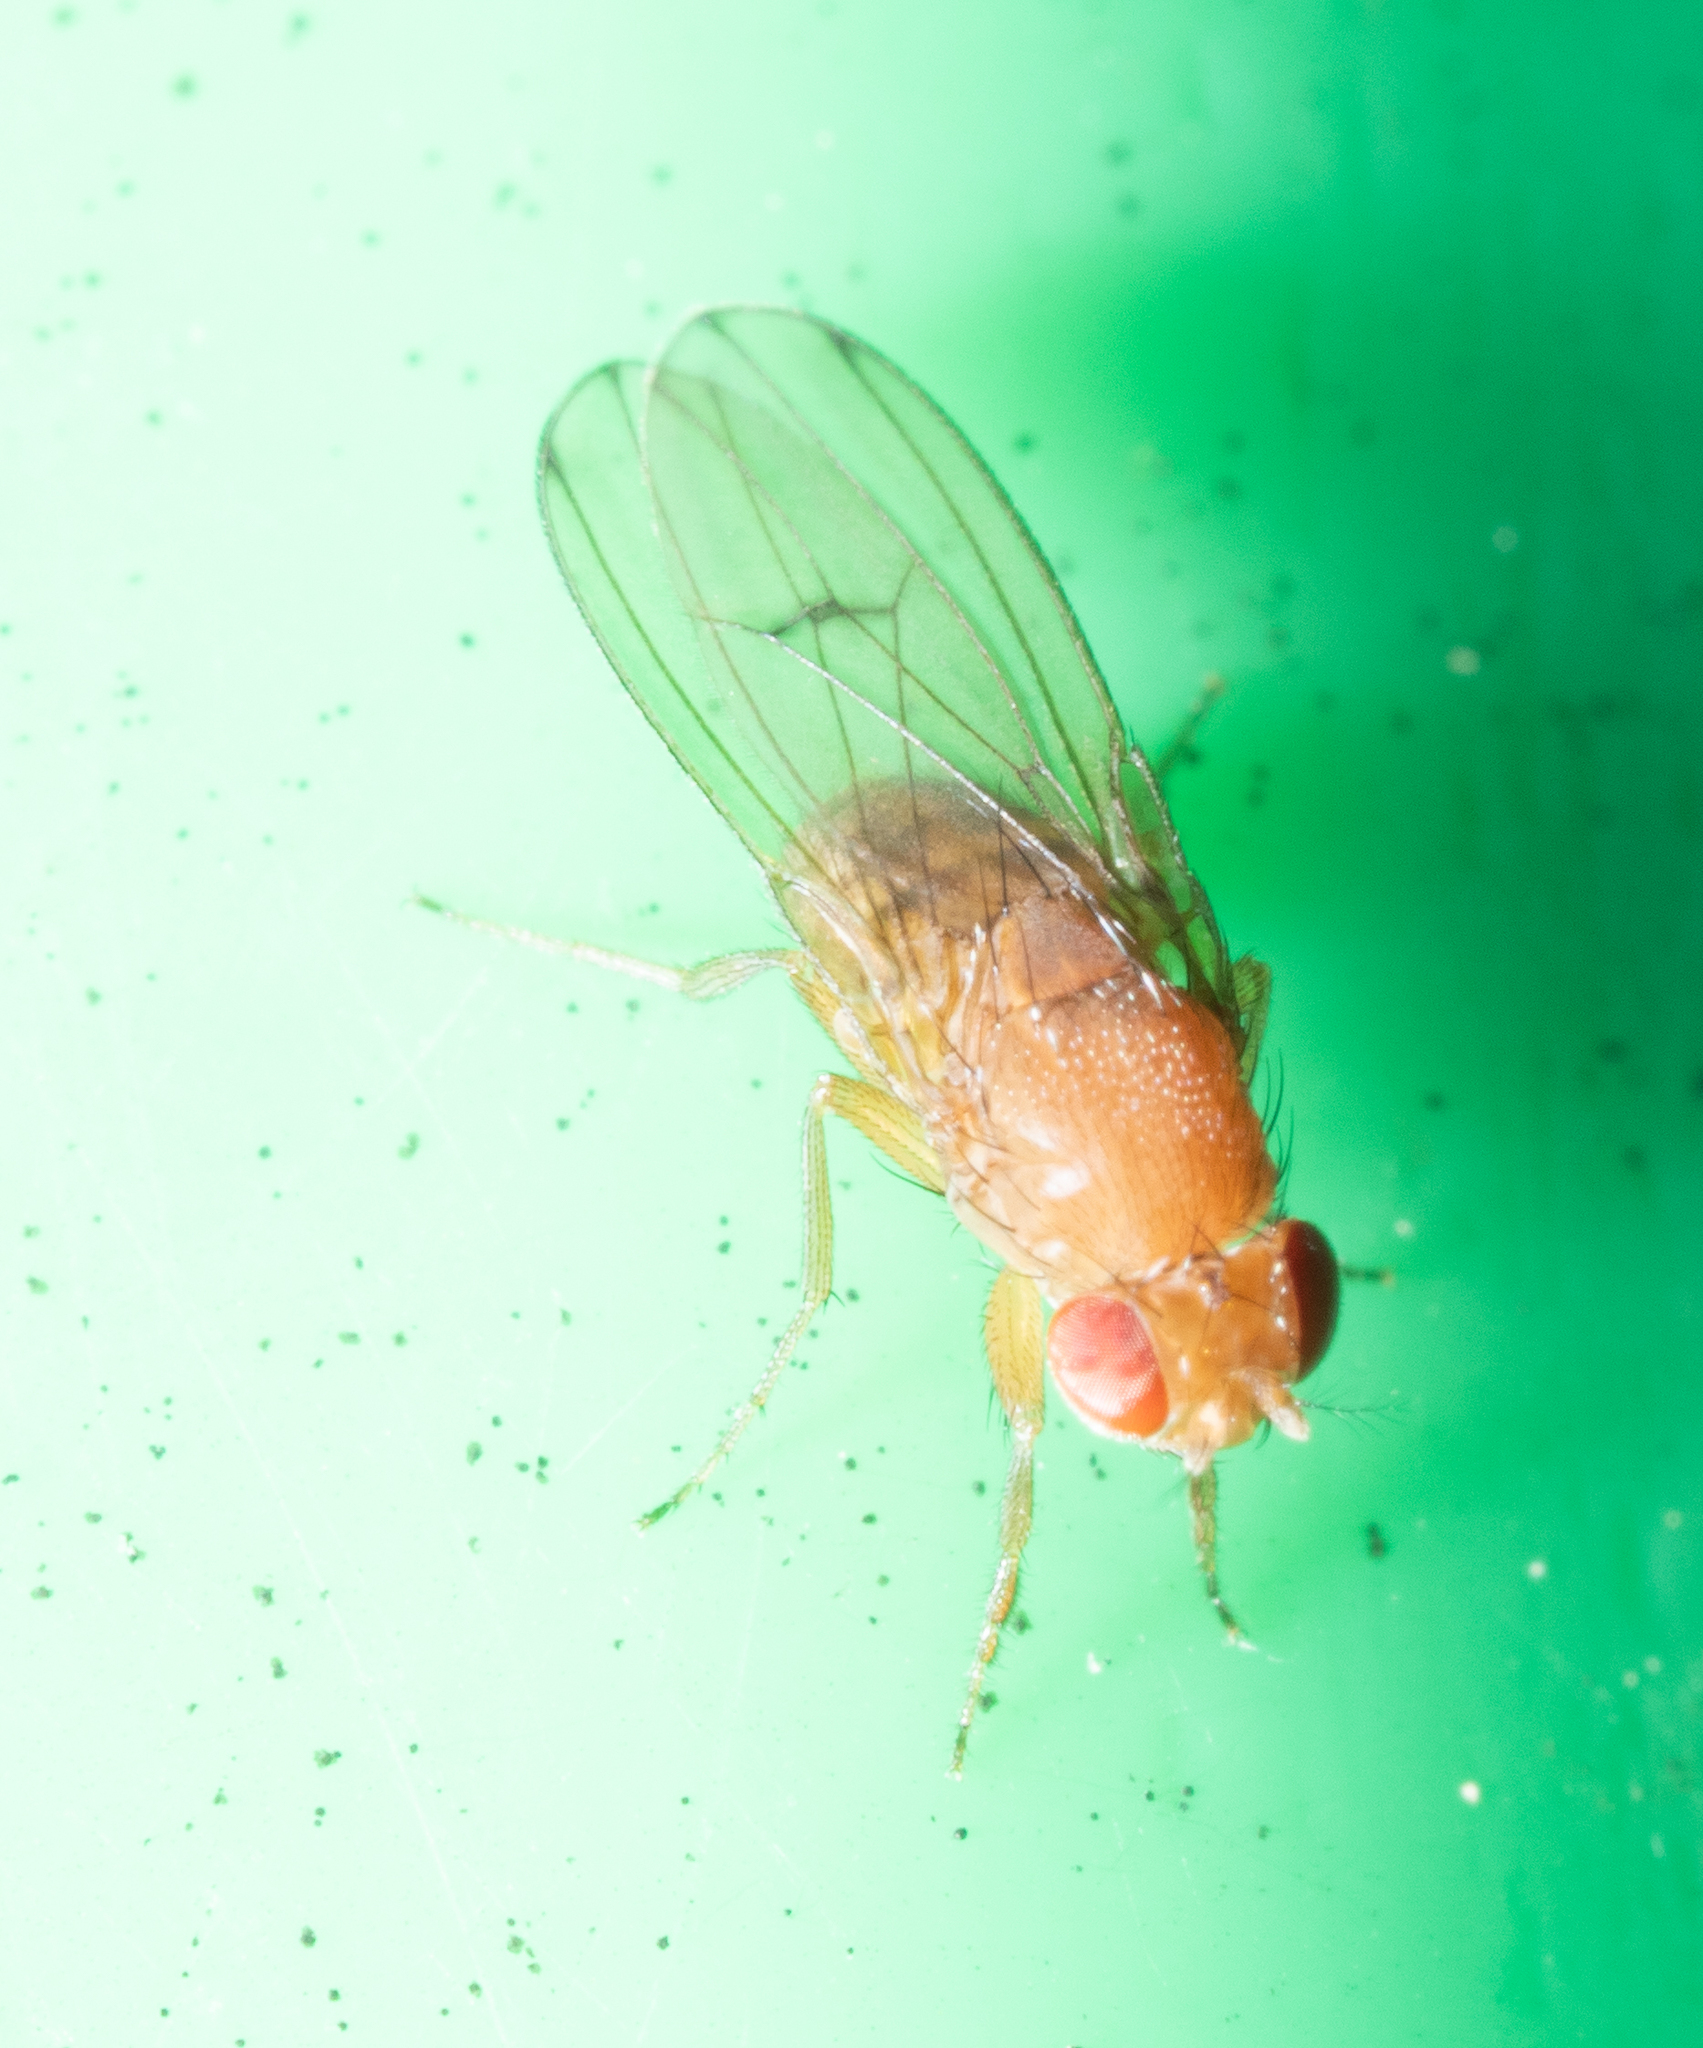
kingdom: Animalia
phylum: Arthropoda
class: Insecta
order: Diptera
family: Drosophilidae
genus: Drosophila
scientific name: Drosophila immigrans
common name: Pomace fly
